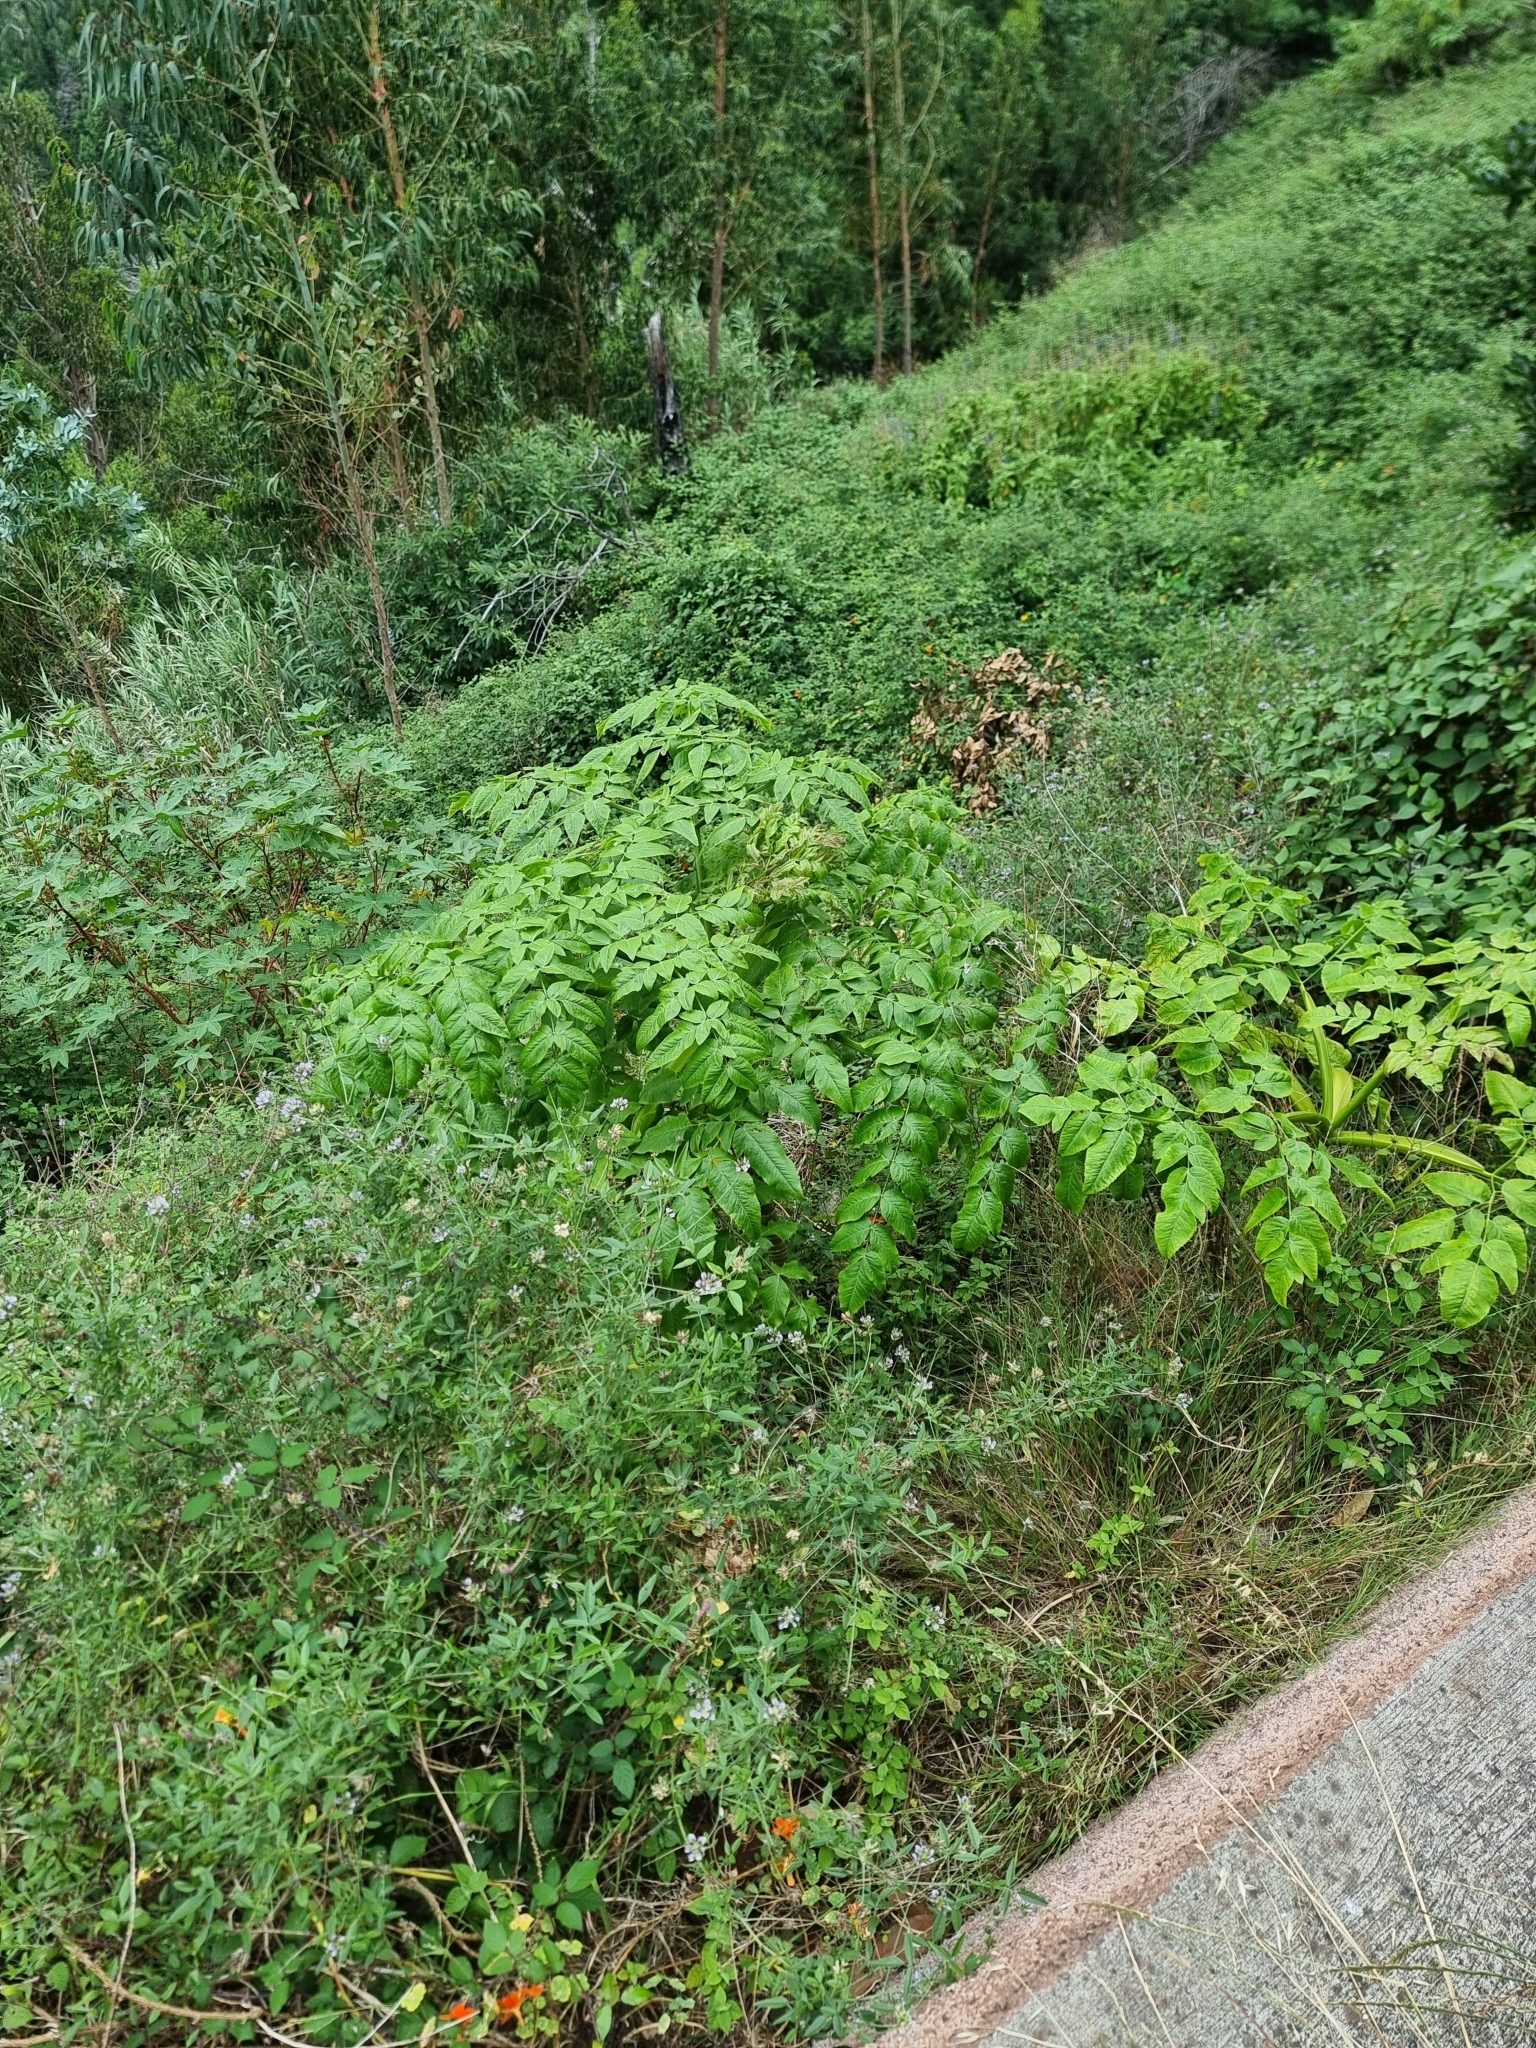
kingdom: Plantae
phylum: Tracheophyta
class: Magnoliopsida
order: Apiales
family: Apiaceae
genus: Daucus
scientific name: Daucus decipiens
